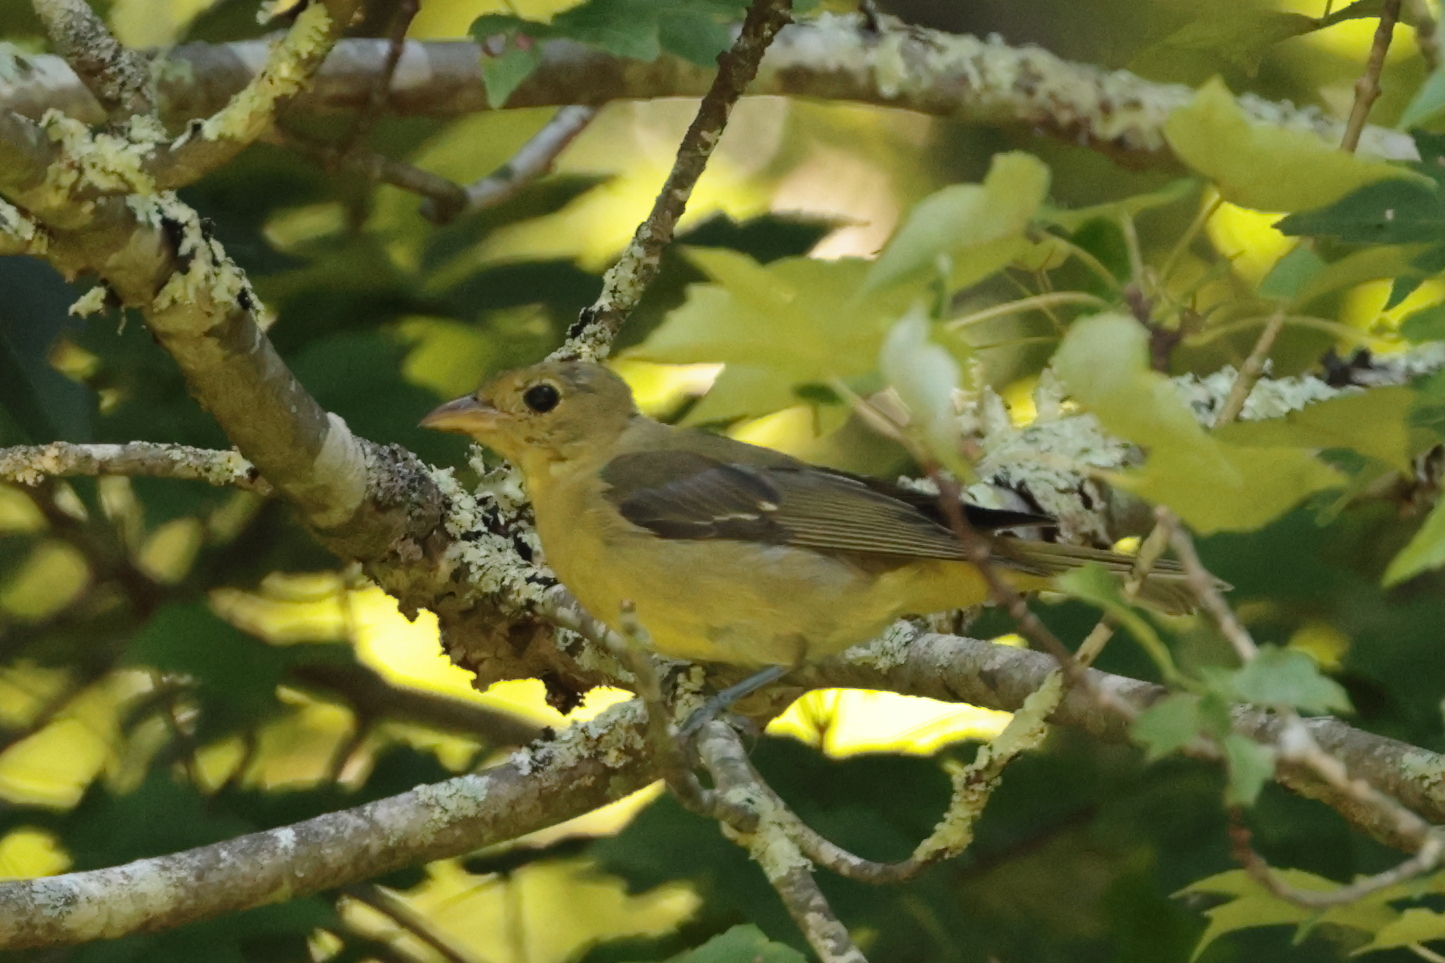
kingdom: Animalia
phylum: Chordata
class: Aves
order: Passeriformes
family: Cardinalidae
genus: Piranga
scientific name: Piranga olivacea
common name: Scarlet tanager
